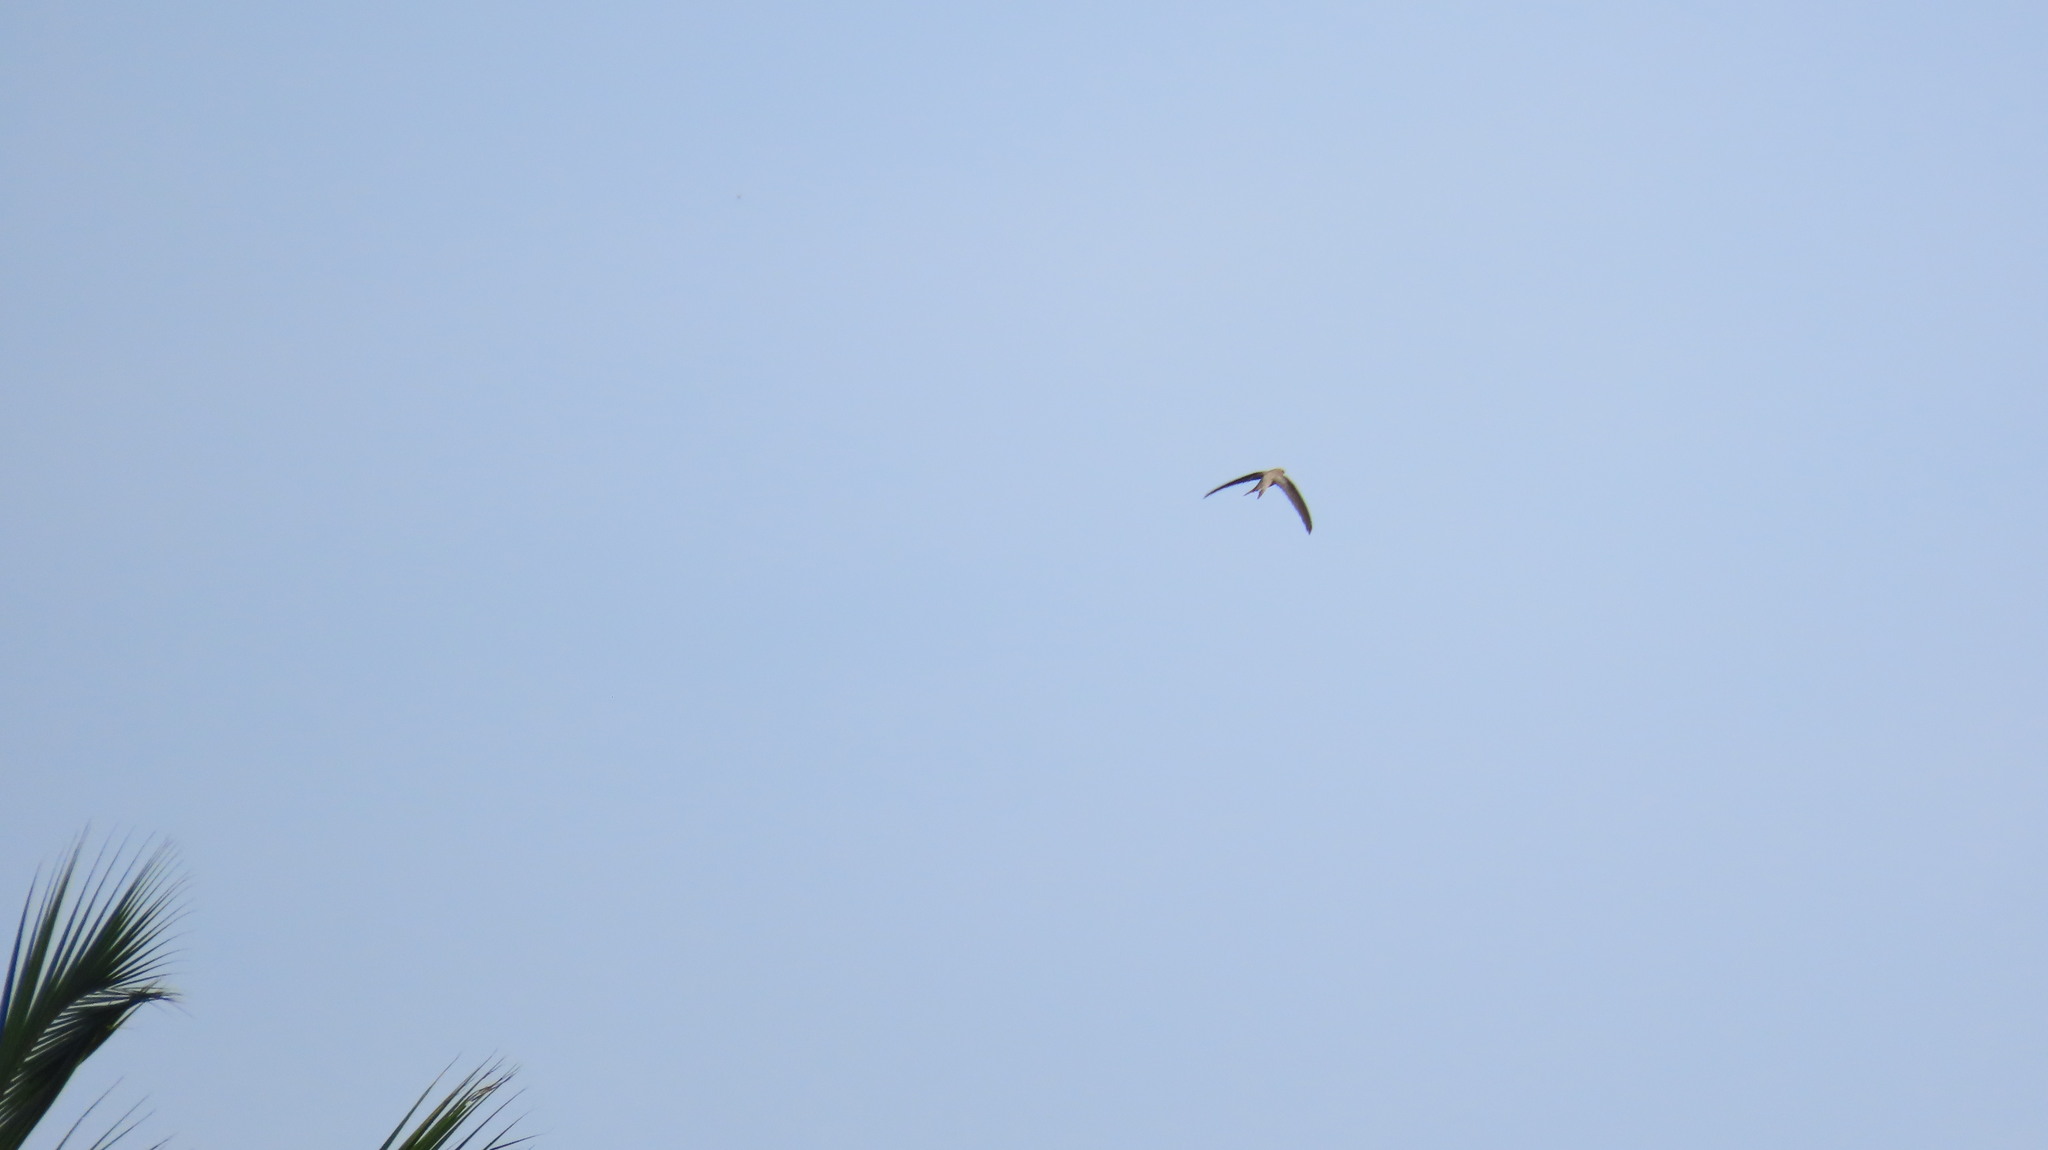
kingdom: Animalia
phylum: Chordata
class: Aves
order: Apodiformes
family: Apodidae
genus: Cypsiurus
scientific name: Cypsiurus balasiensis
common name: Asian palm swift
